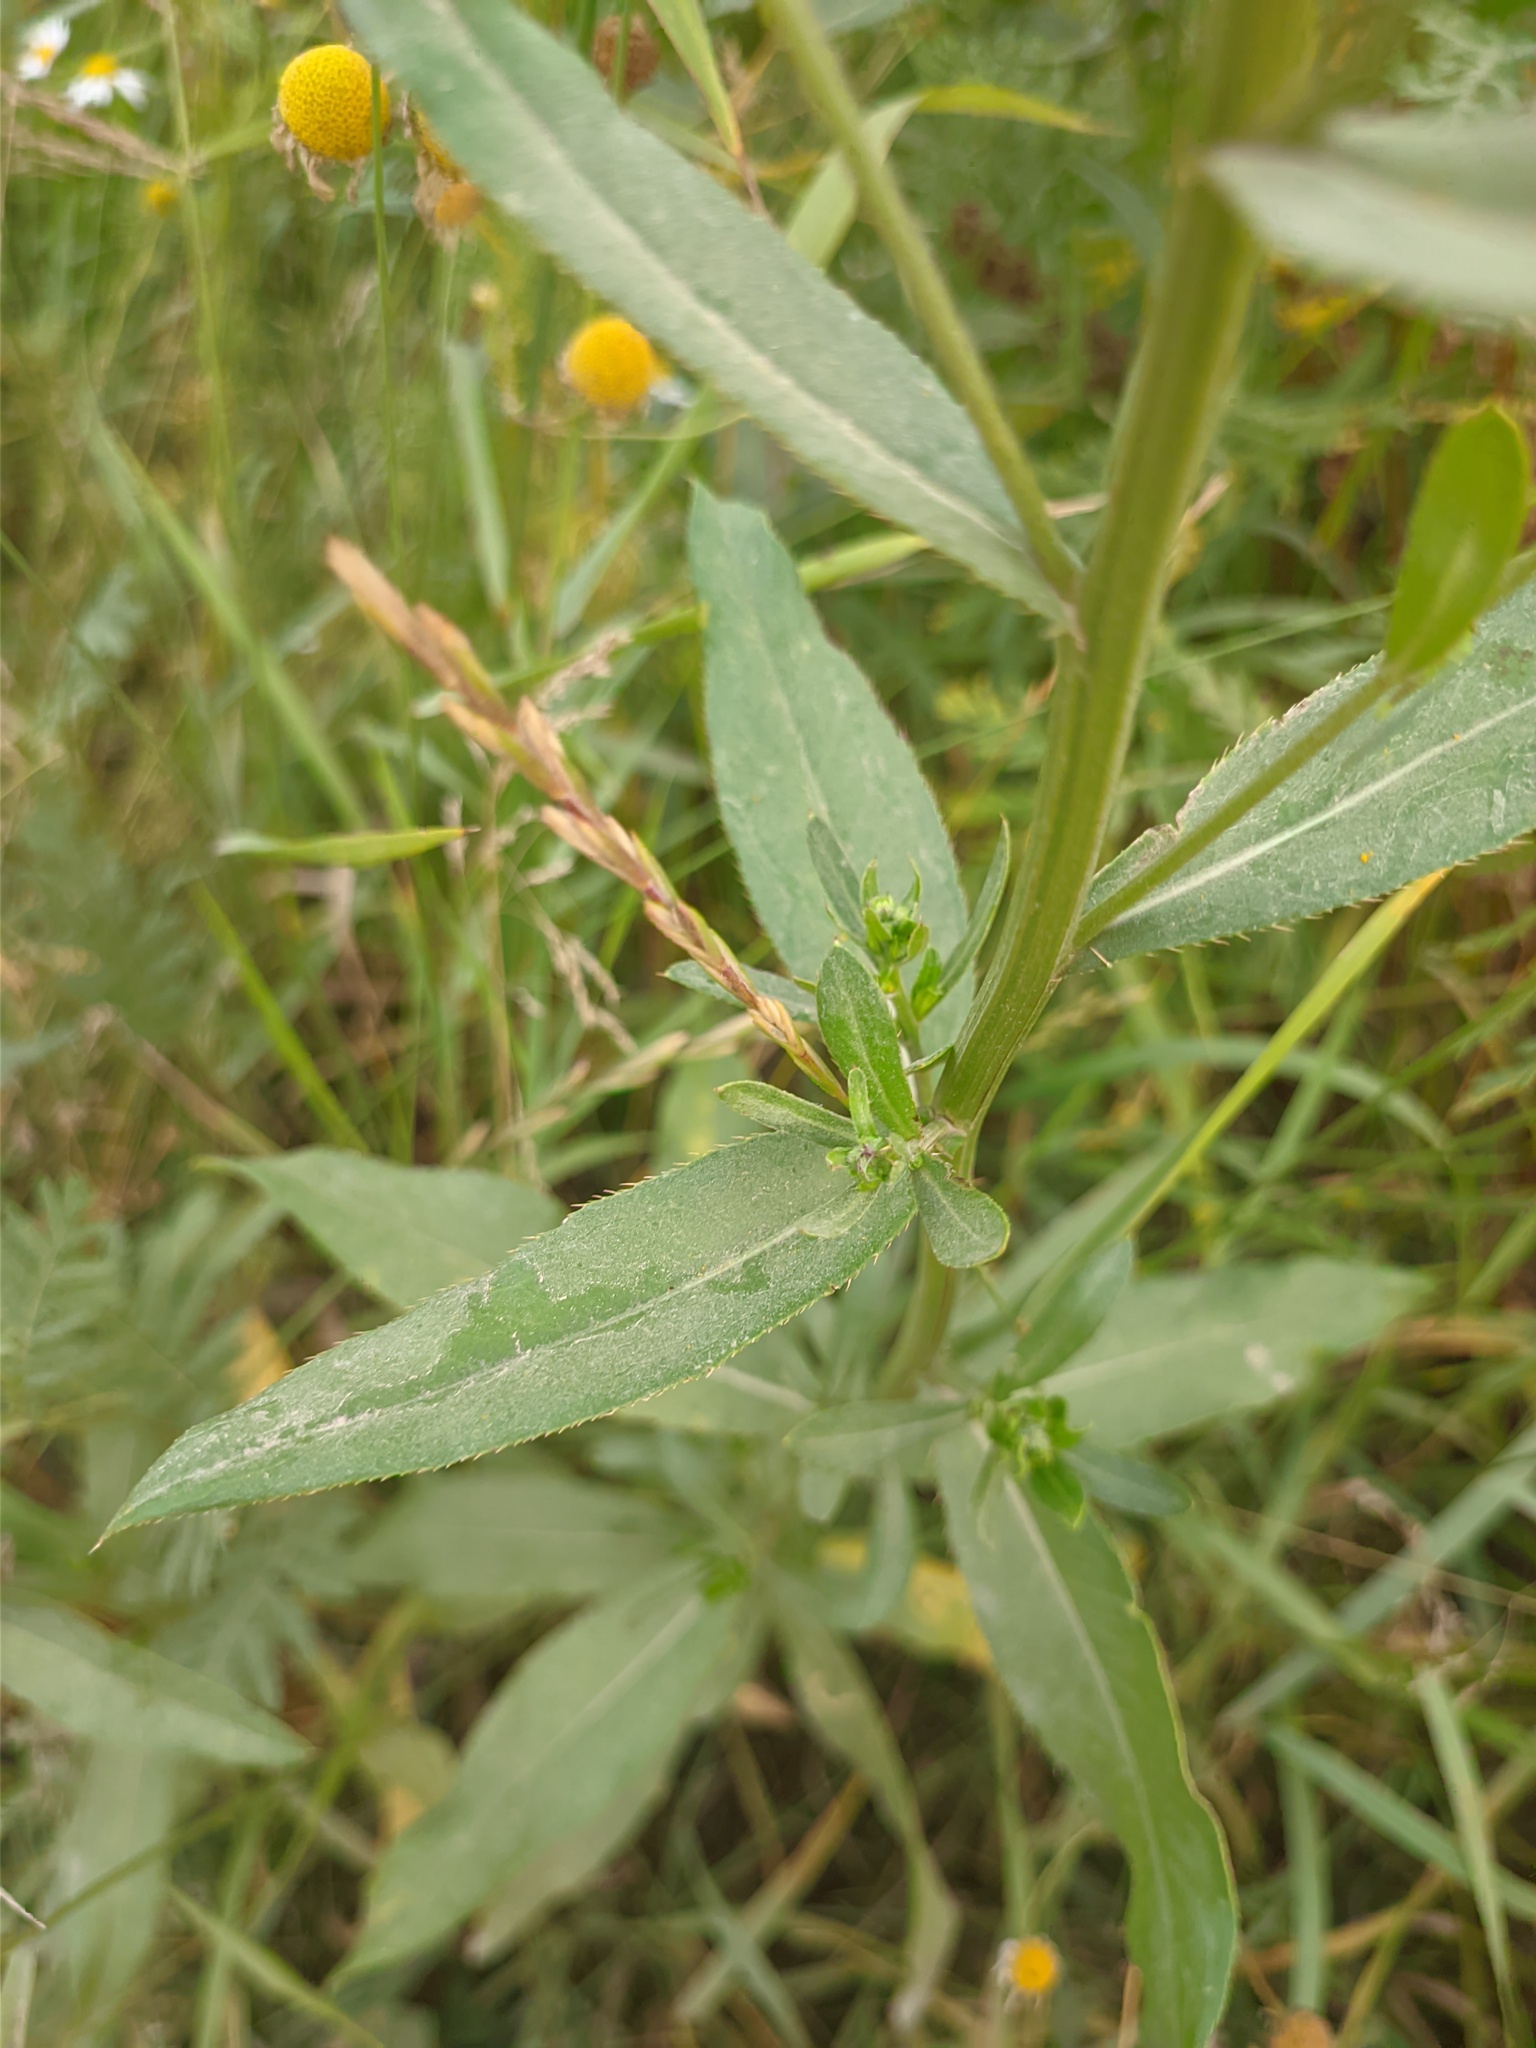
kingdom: Plantae
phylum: Tracheophyta
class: Magnoliopsida
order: Asterales
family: Asteraceae
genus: Cirsium
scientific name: Cirsium arvense
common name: Creeping thistle
